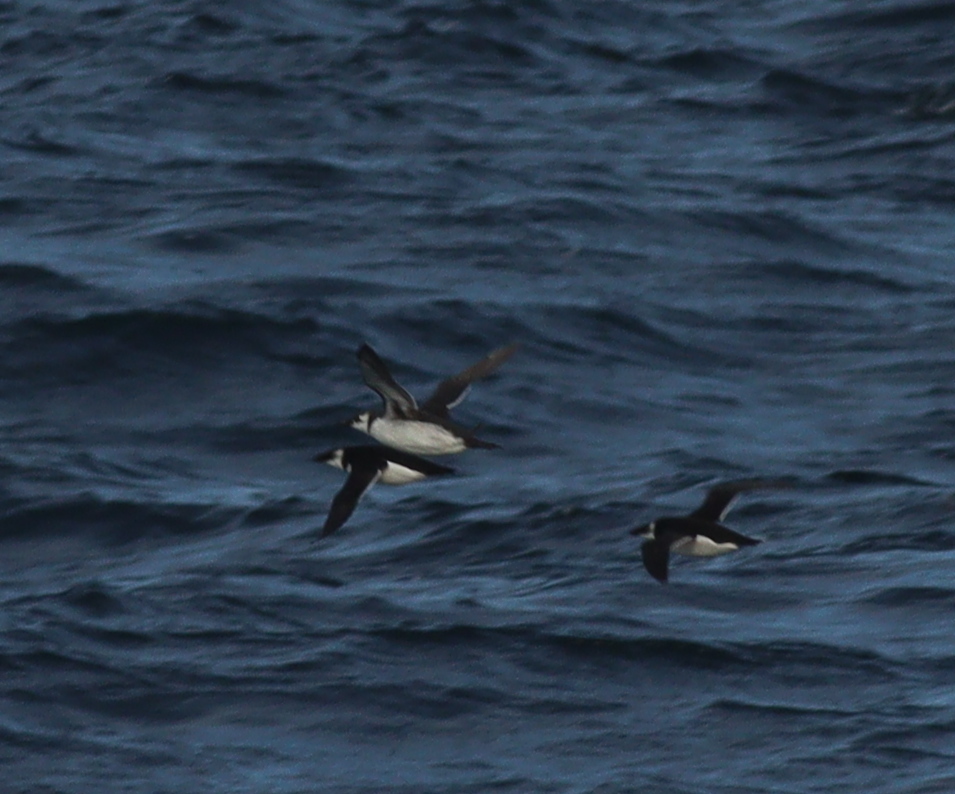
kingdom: Animalia
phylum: Chordata
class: Aves
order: Charadriiformes
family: Alcidae
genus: Alca
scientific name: Alca torda
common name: Razorbill
